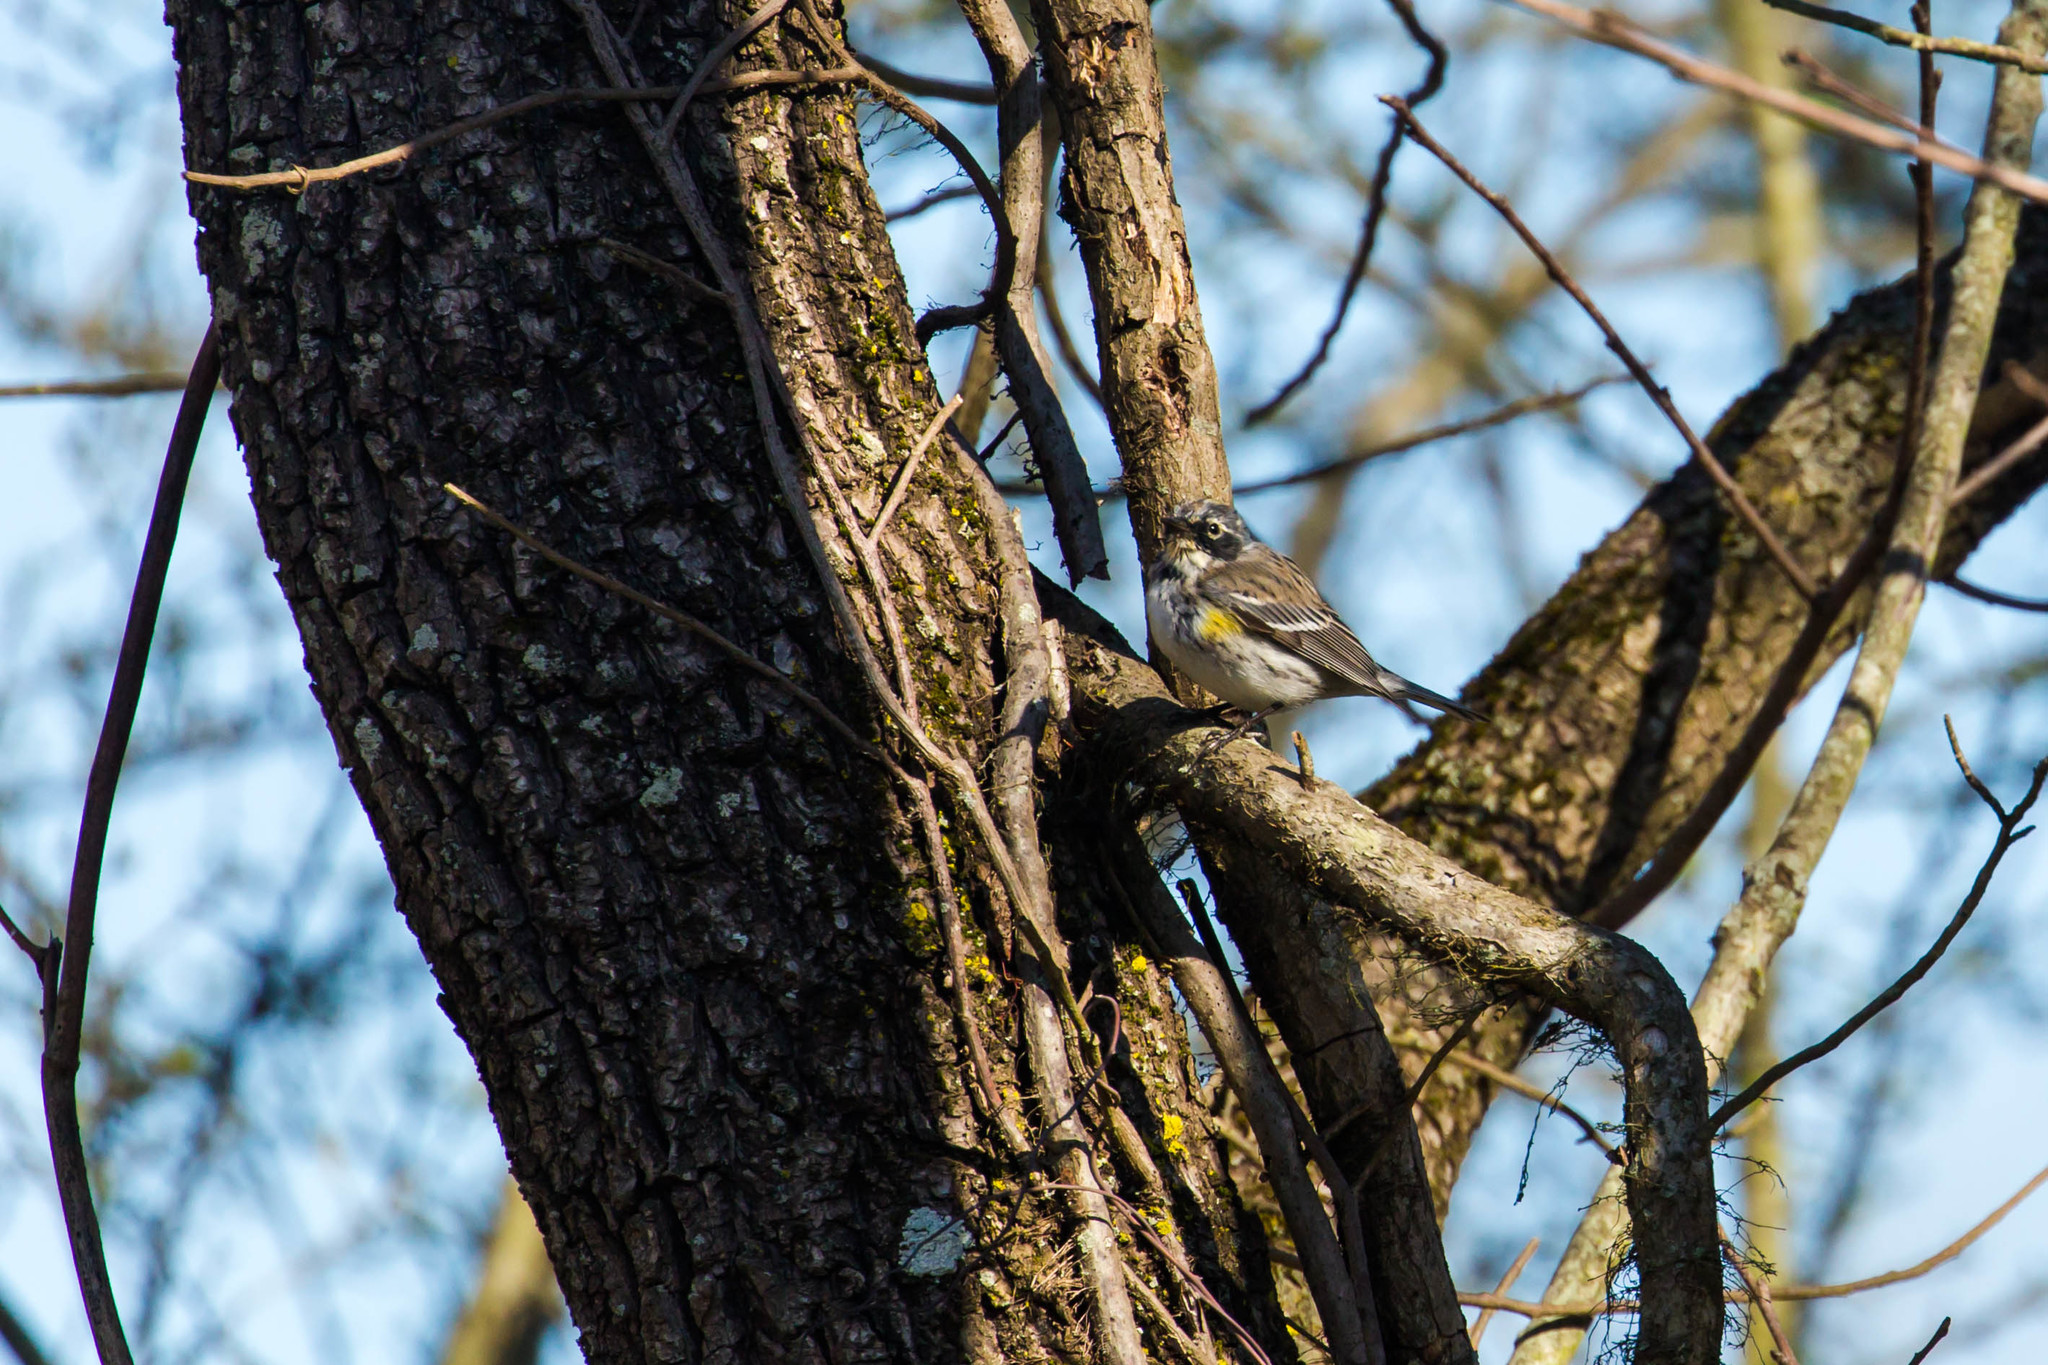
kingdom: Animalia
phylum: Chordata
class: Aves
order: Passeriformes
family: Parulidae
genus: Setophaga
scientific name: Setophaga coronata
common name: Myrtle warbler
